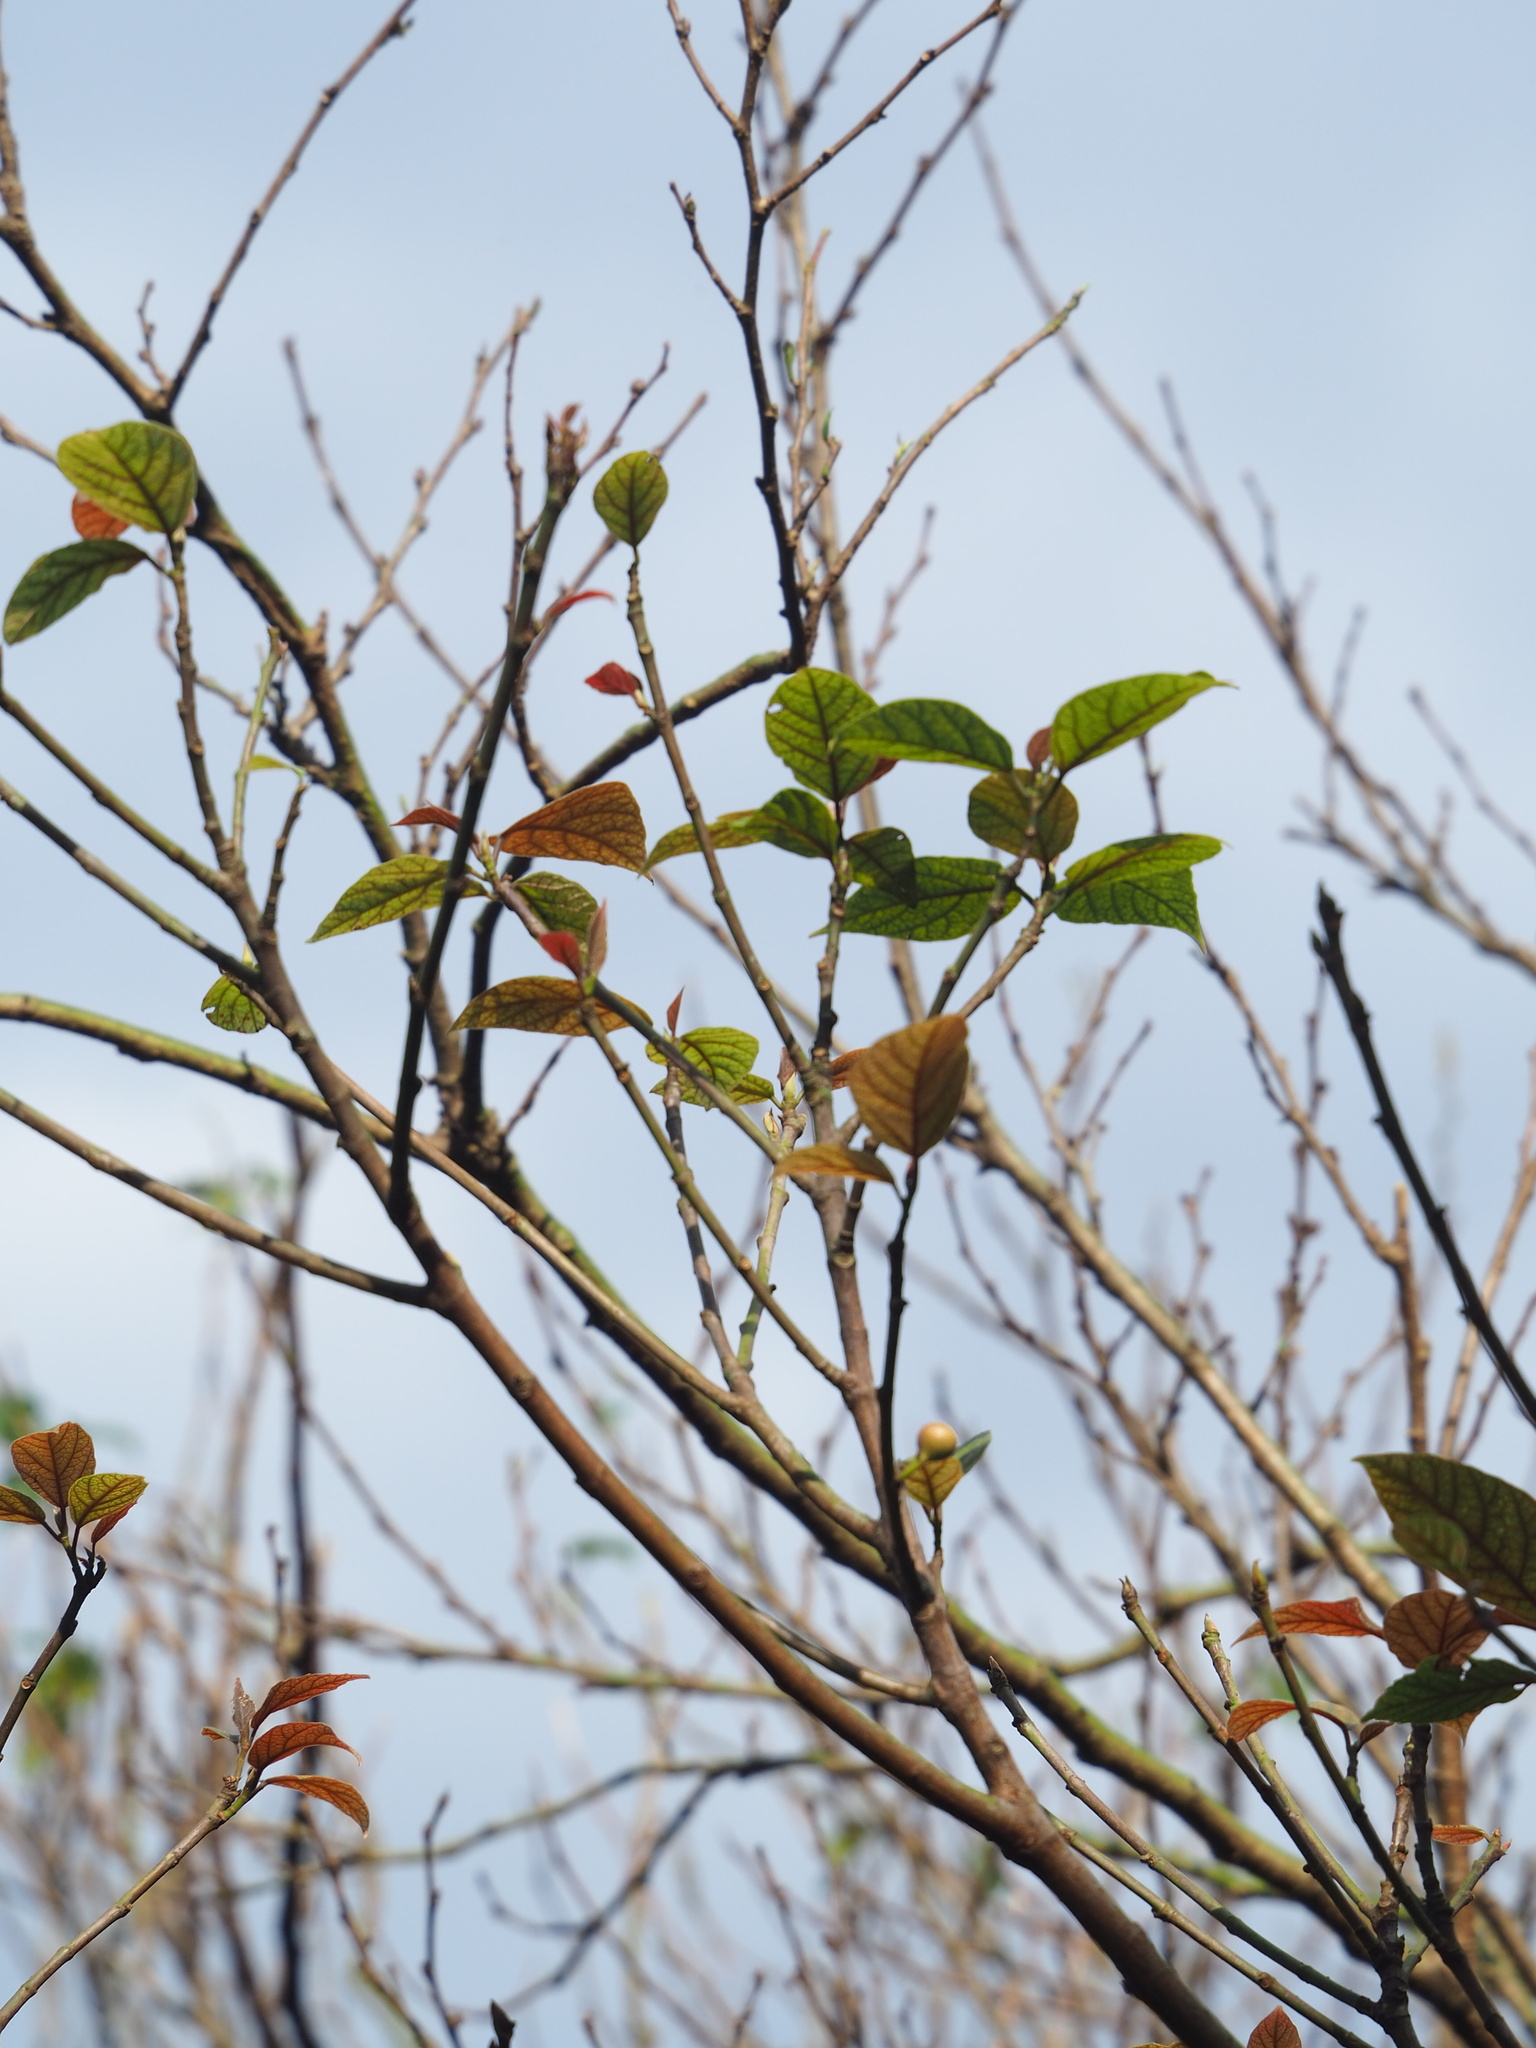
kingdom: Plantae
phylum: Tracheophyta
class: Magnoliopsida
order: Rosales
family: Moraceae
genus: Ficus
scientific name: Ficus erecta
